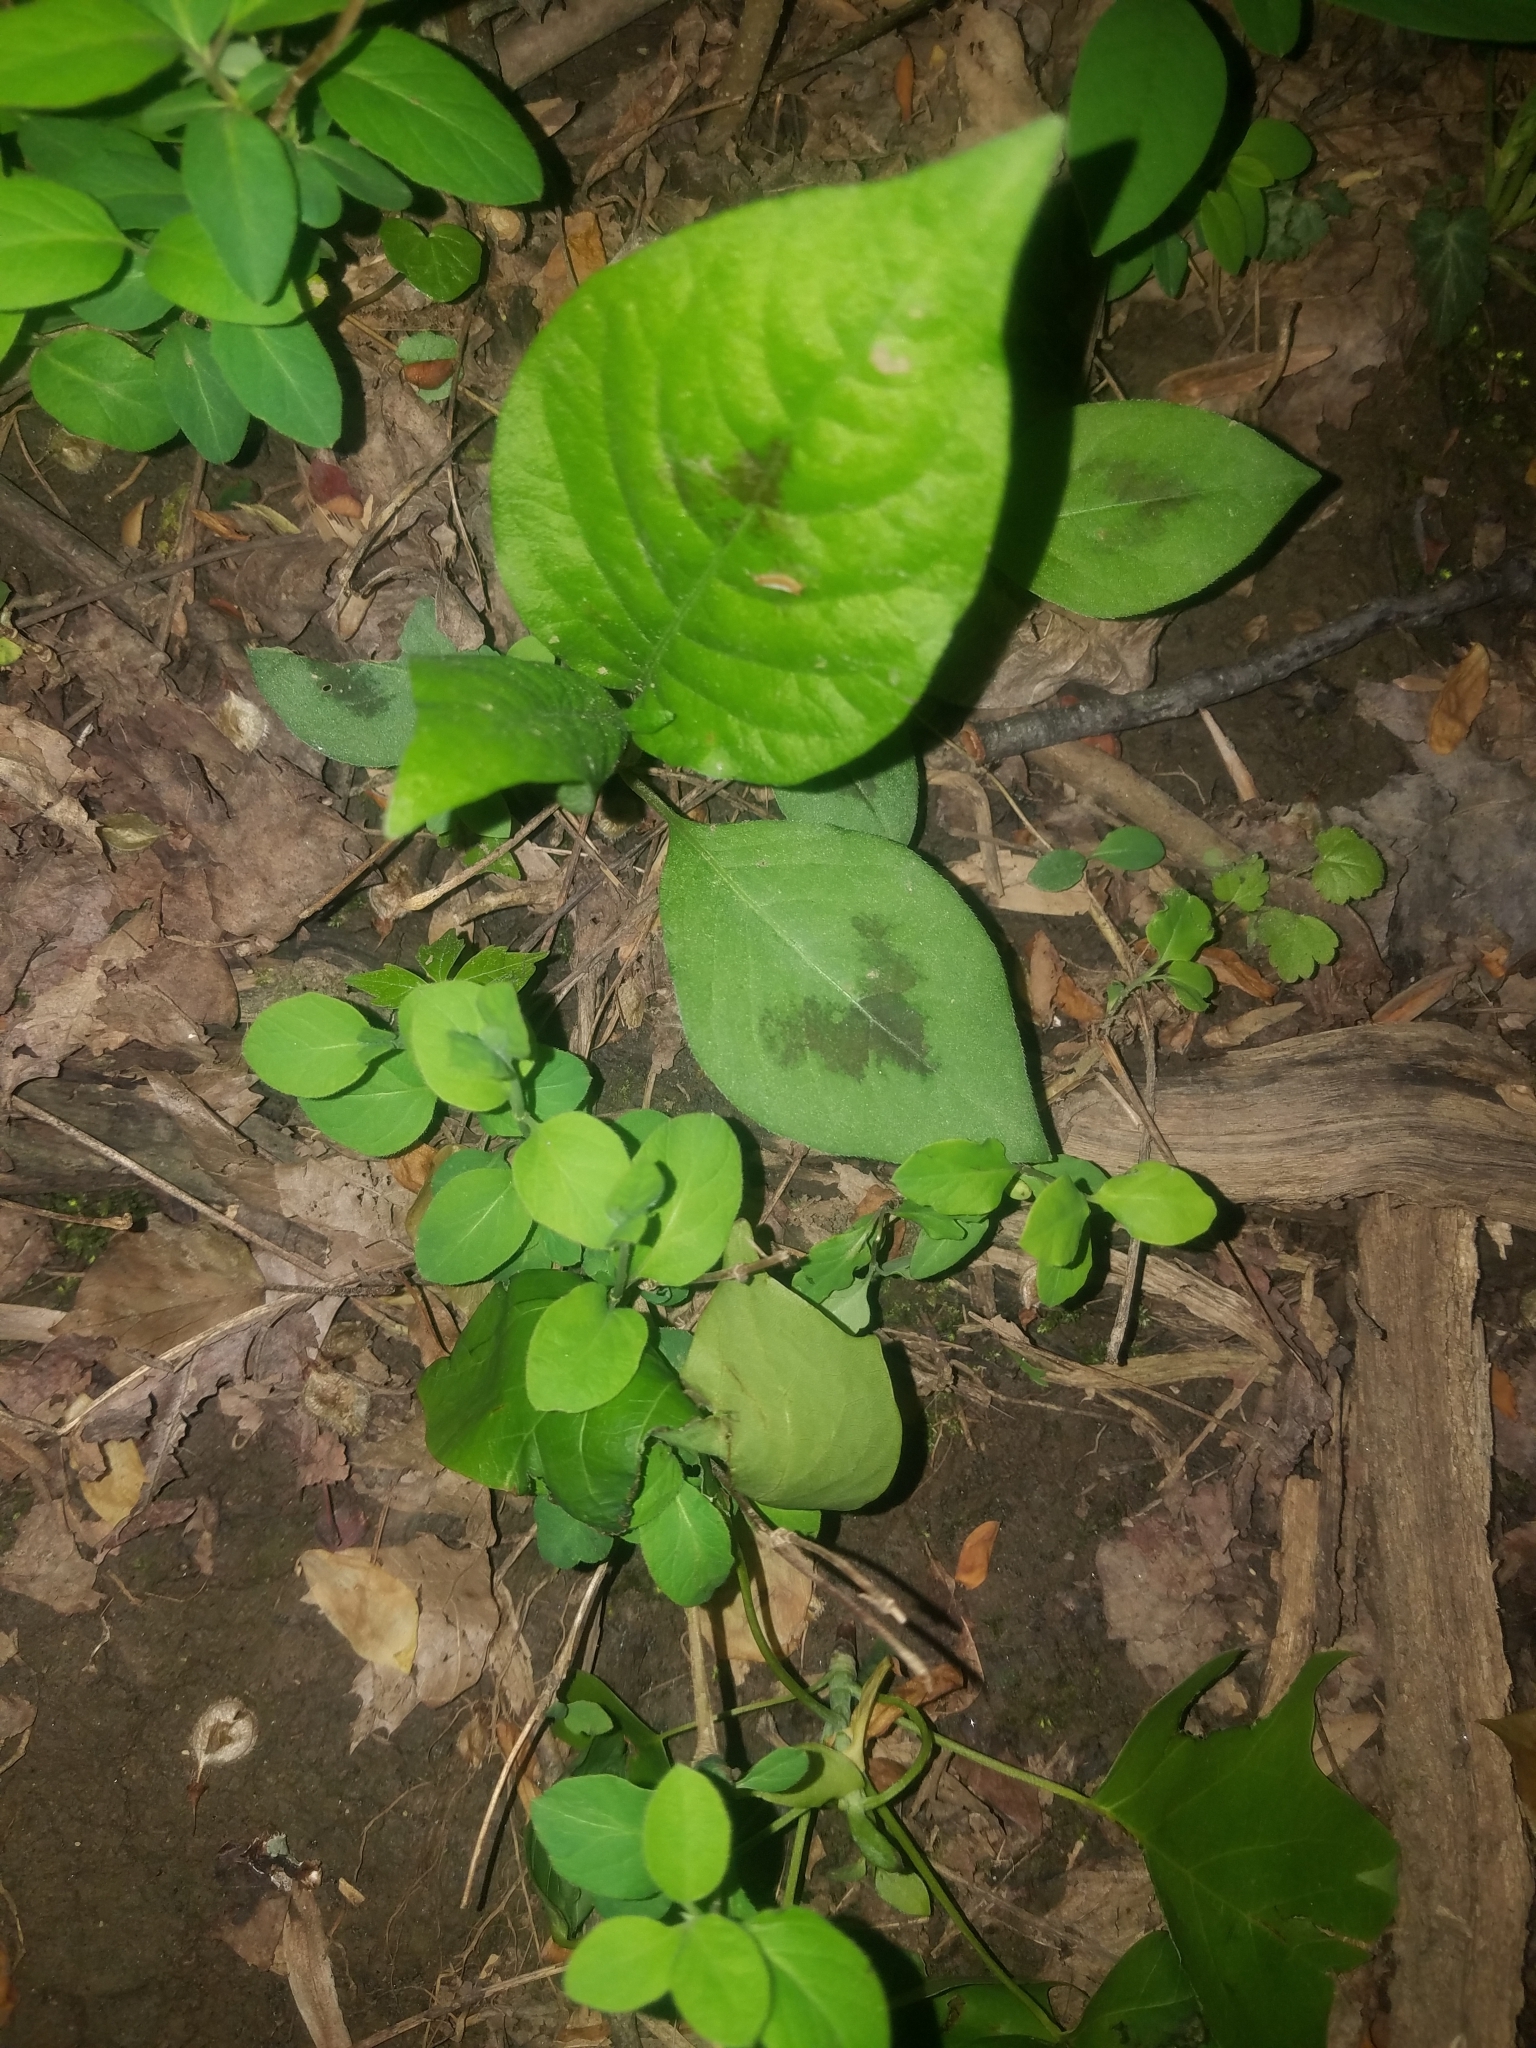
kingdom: Plantae
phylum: Tracheophyta
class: Magnoliopsida
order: Caryophyllales
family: Polygonaceae
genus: Persicaria
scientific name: Persicaria virginiana
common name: Jumpseed
